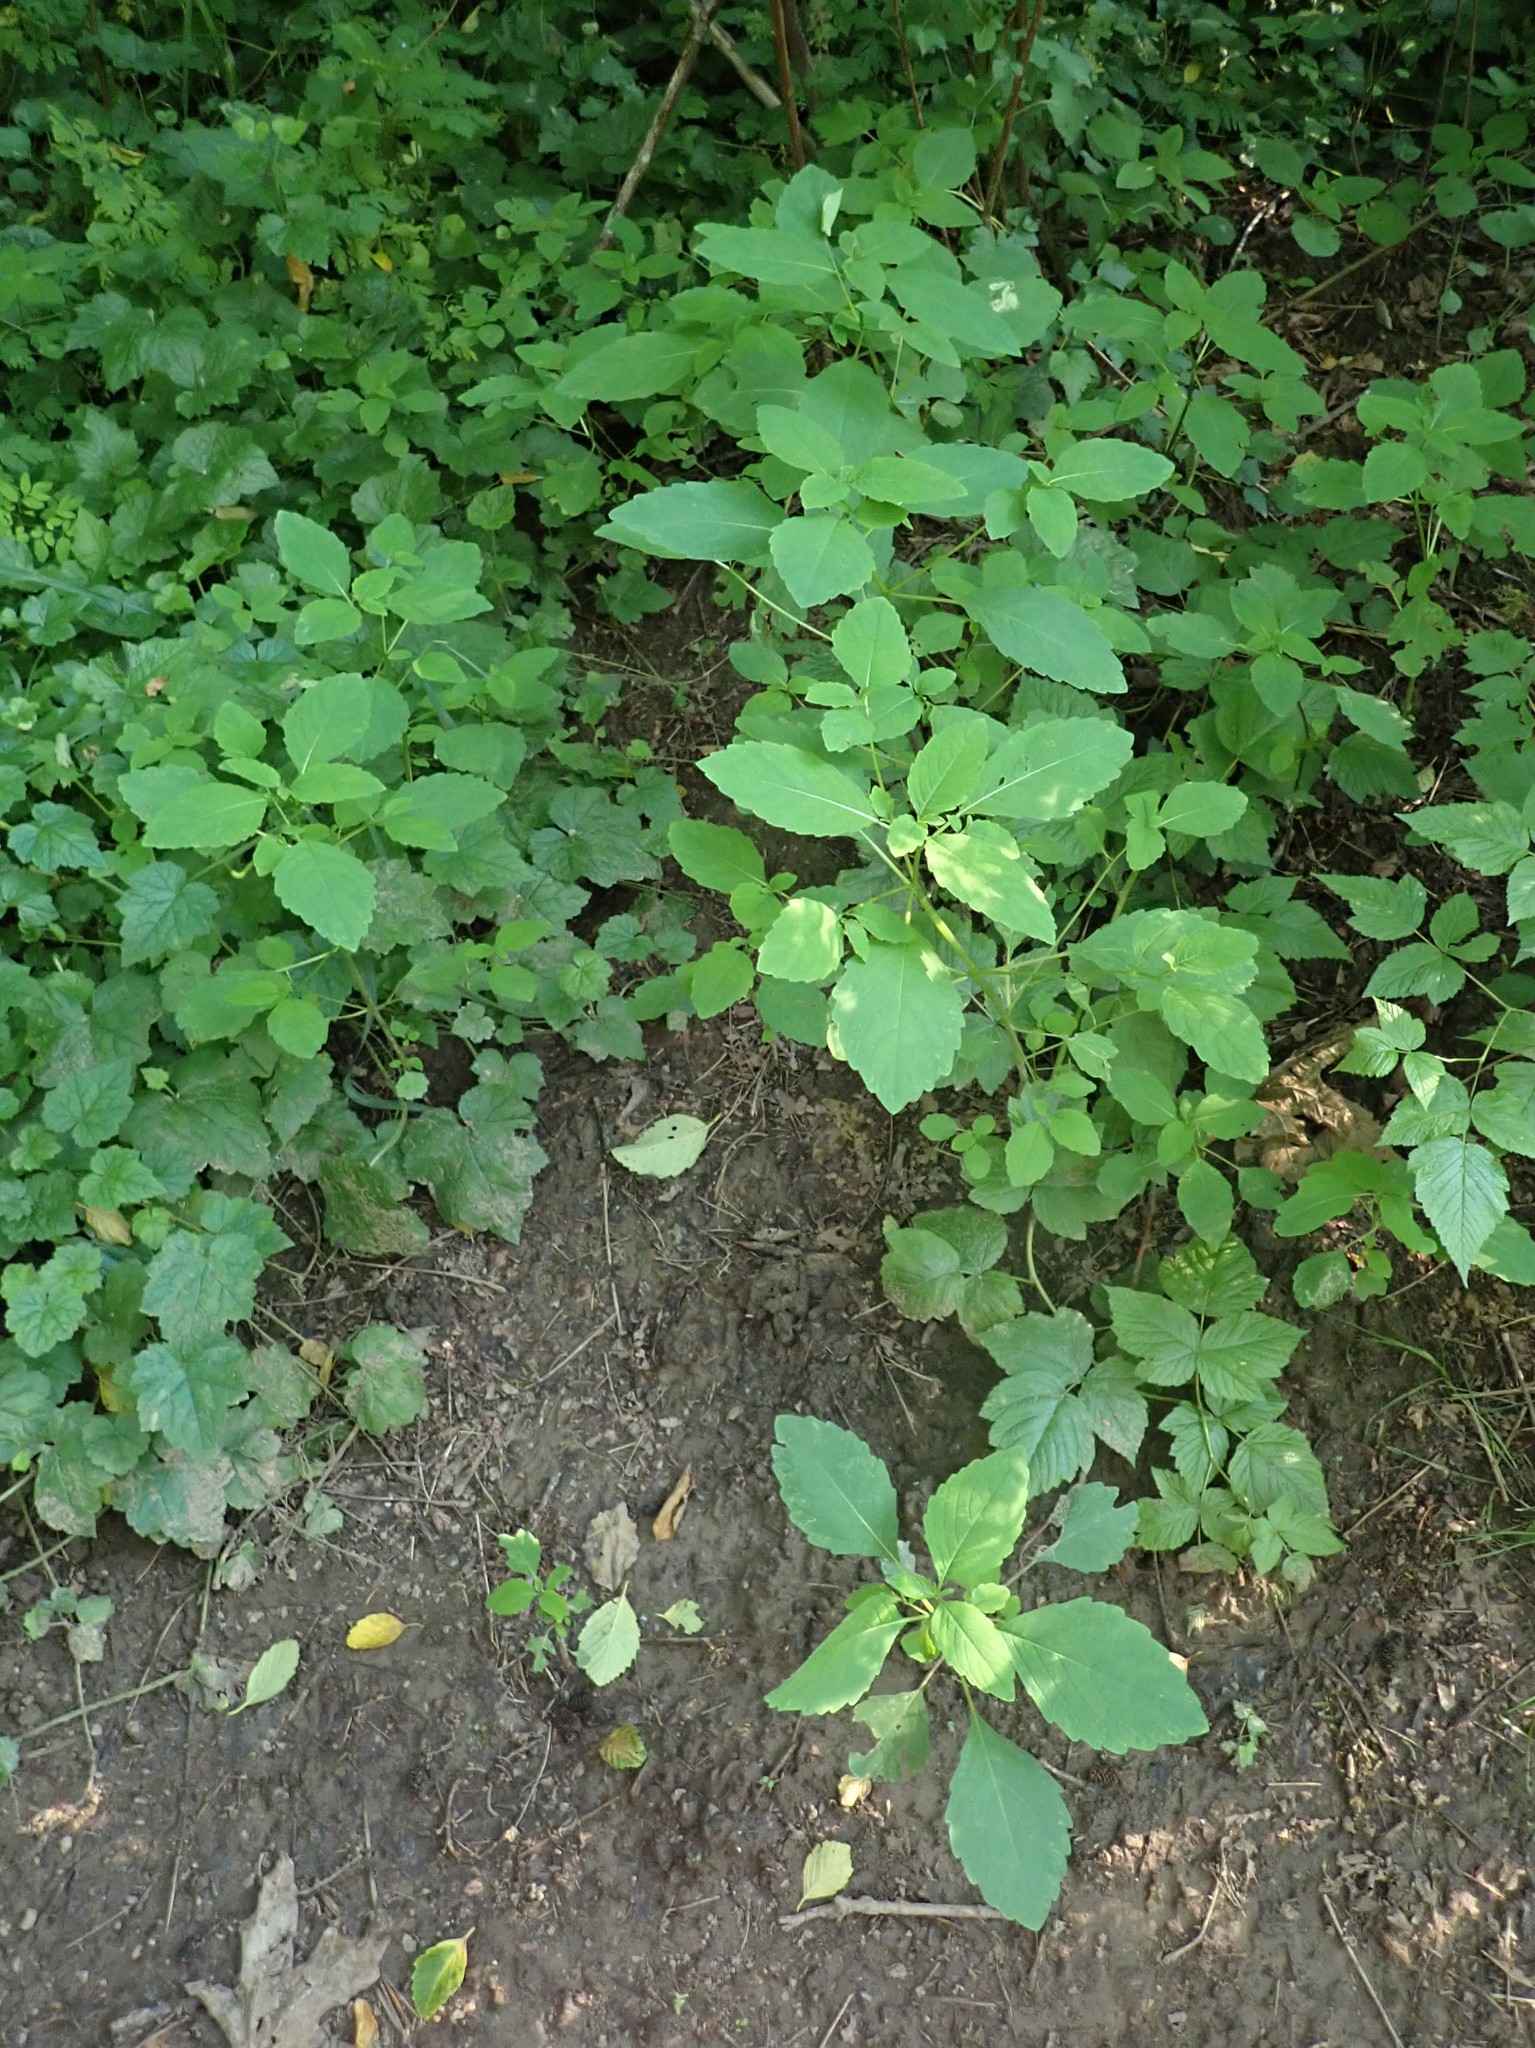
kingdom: Plantae
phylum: Tracheophyta
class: Magnoliopsida
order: Ericales
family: Balsaminaceae
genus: Impatiens
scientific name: Impatiens capensis
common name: Orange balsam
